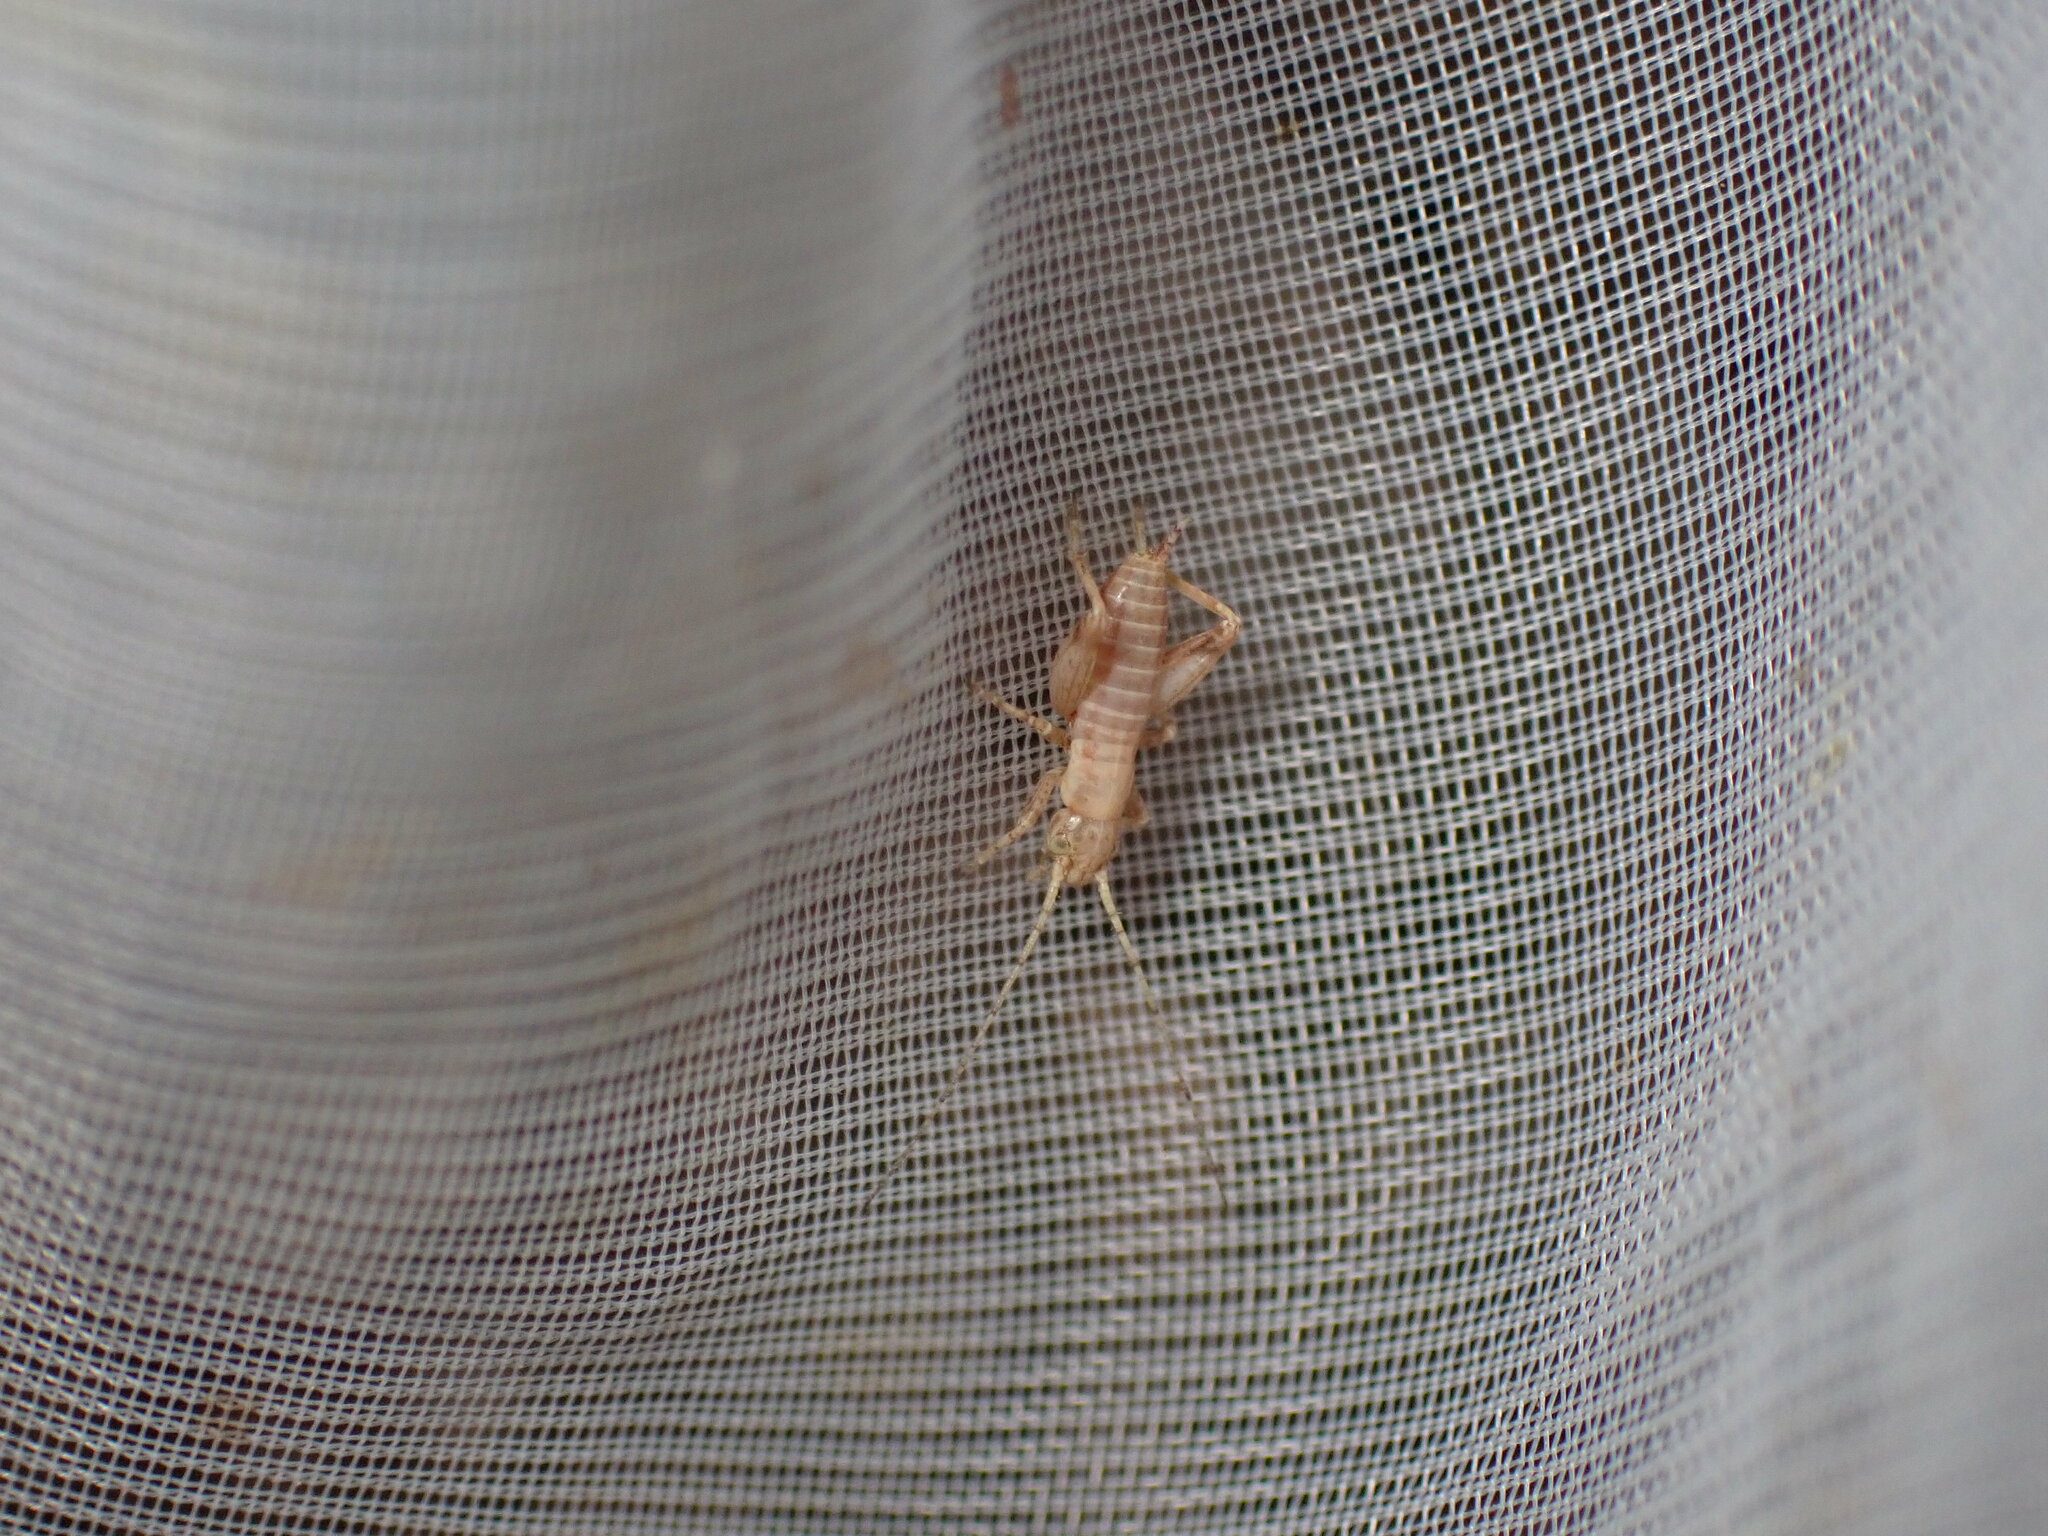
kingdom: Animalia
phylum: Arthropoda
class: Insecta
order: Orthoptera
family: Mogoplistidae
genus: Arachnocephalus
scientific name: Arachnocephalus vestitus
